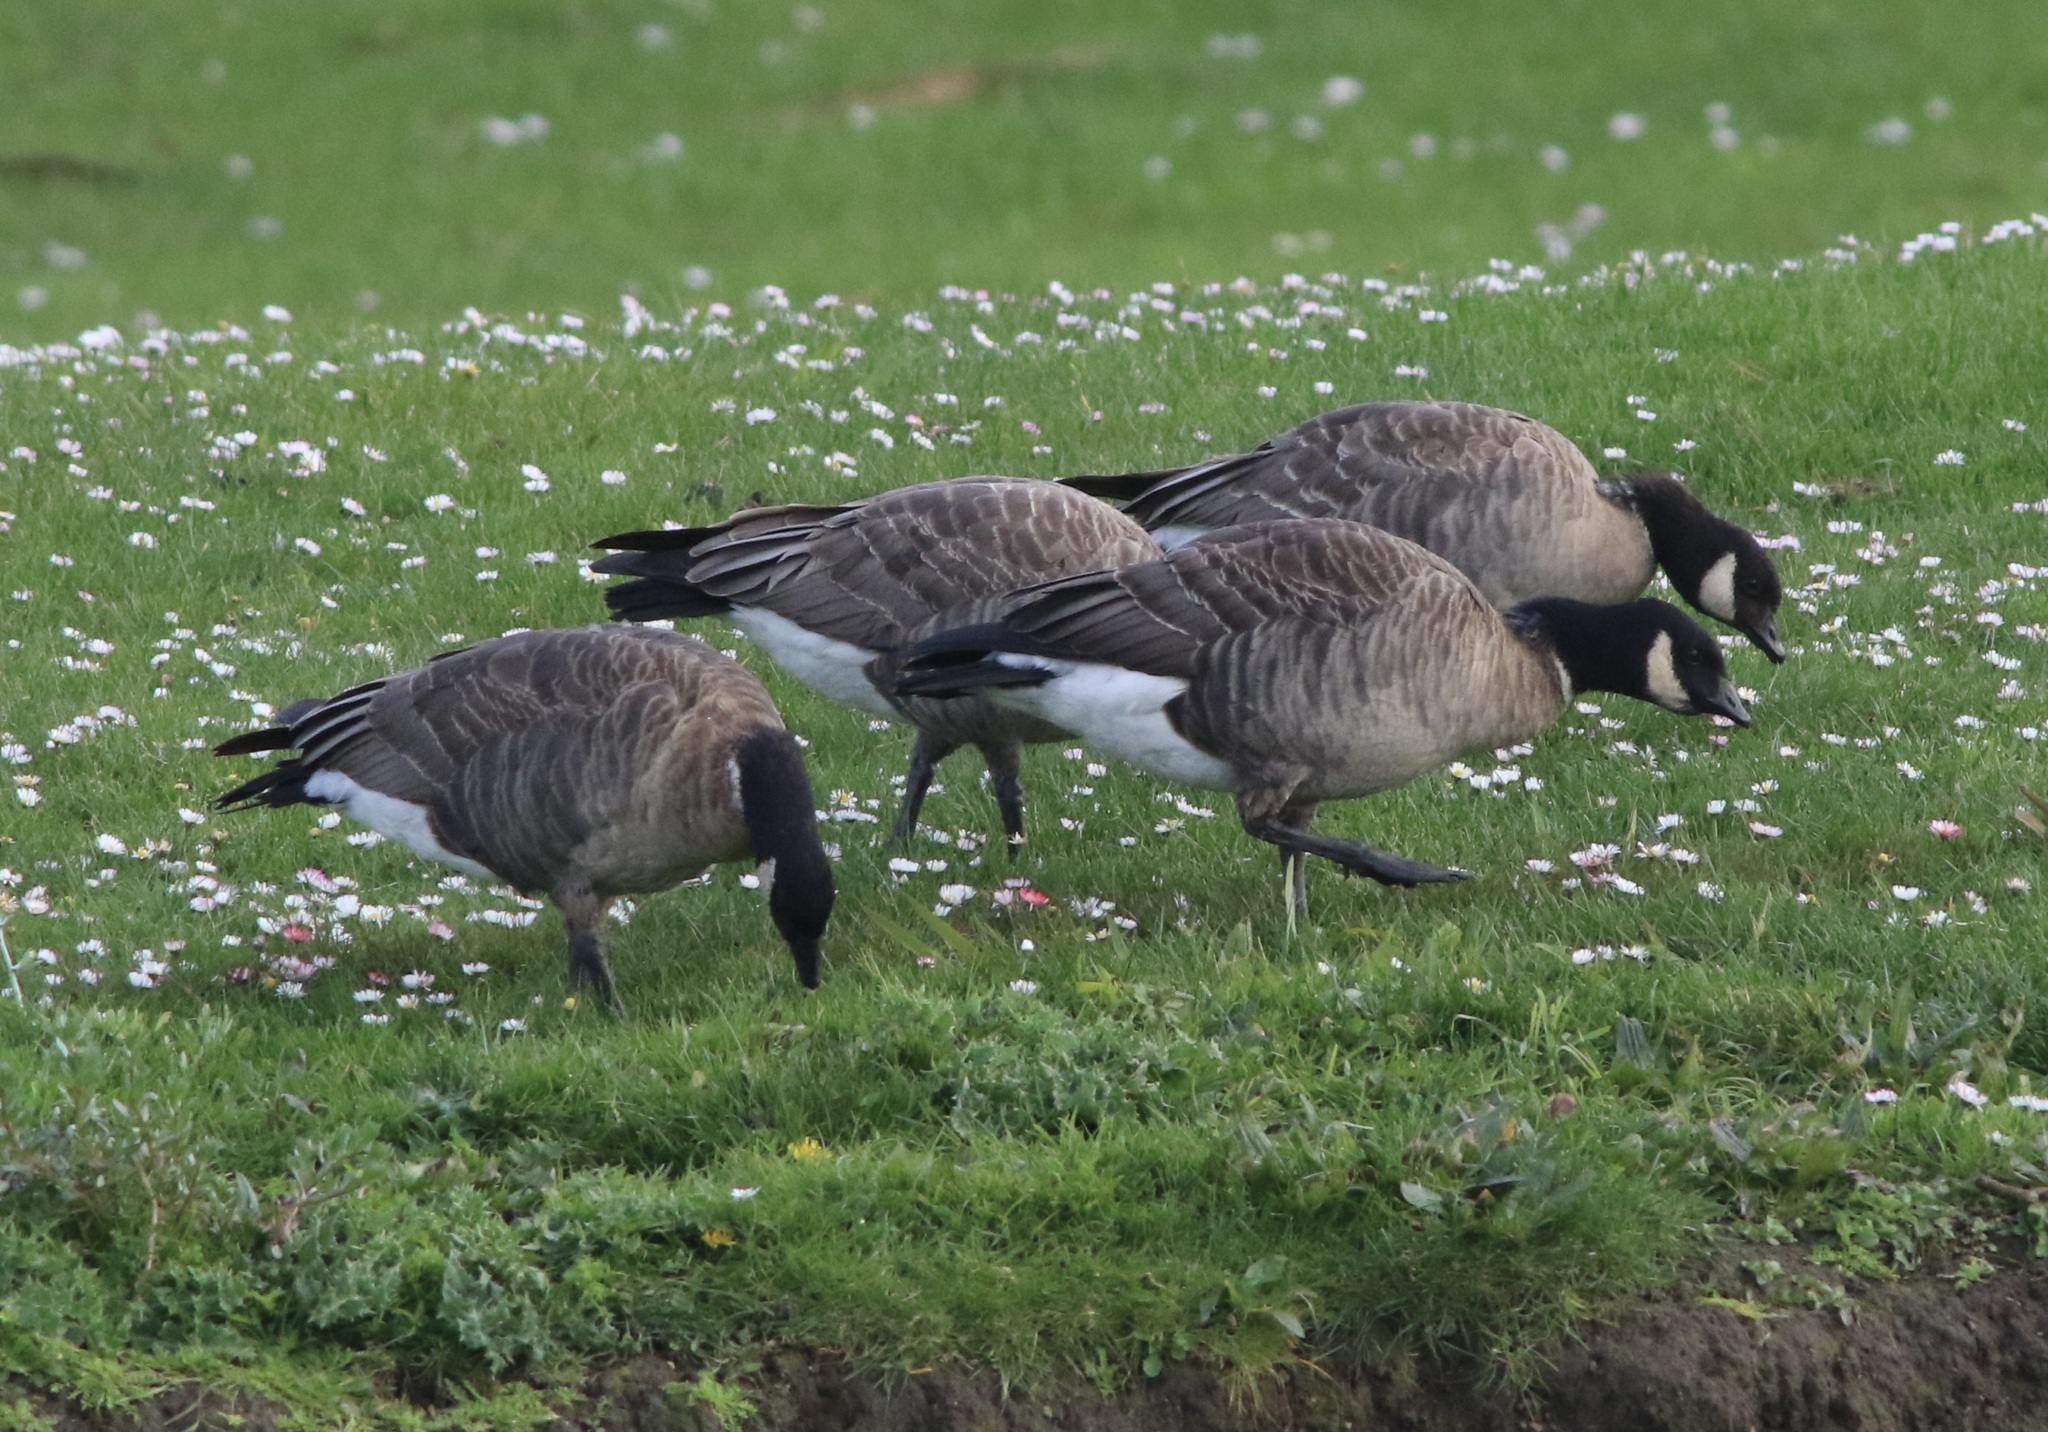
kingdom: Animalia
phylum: Chordata
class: Aves
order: Anseriformes
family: Anatidae
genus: Branta
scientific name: Branta hutchinsii
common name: Cackling goose
